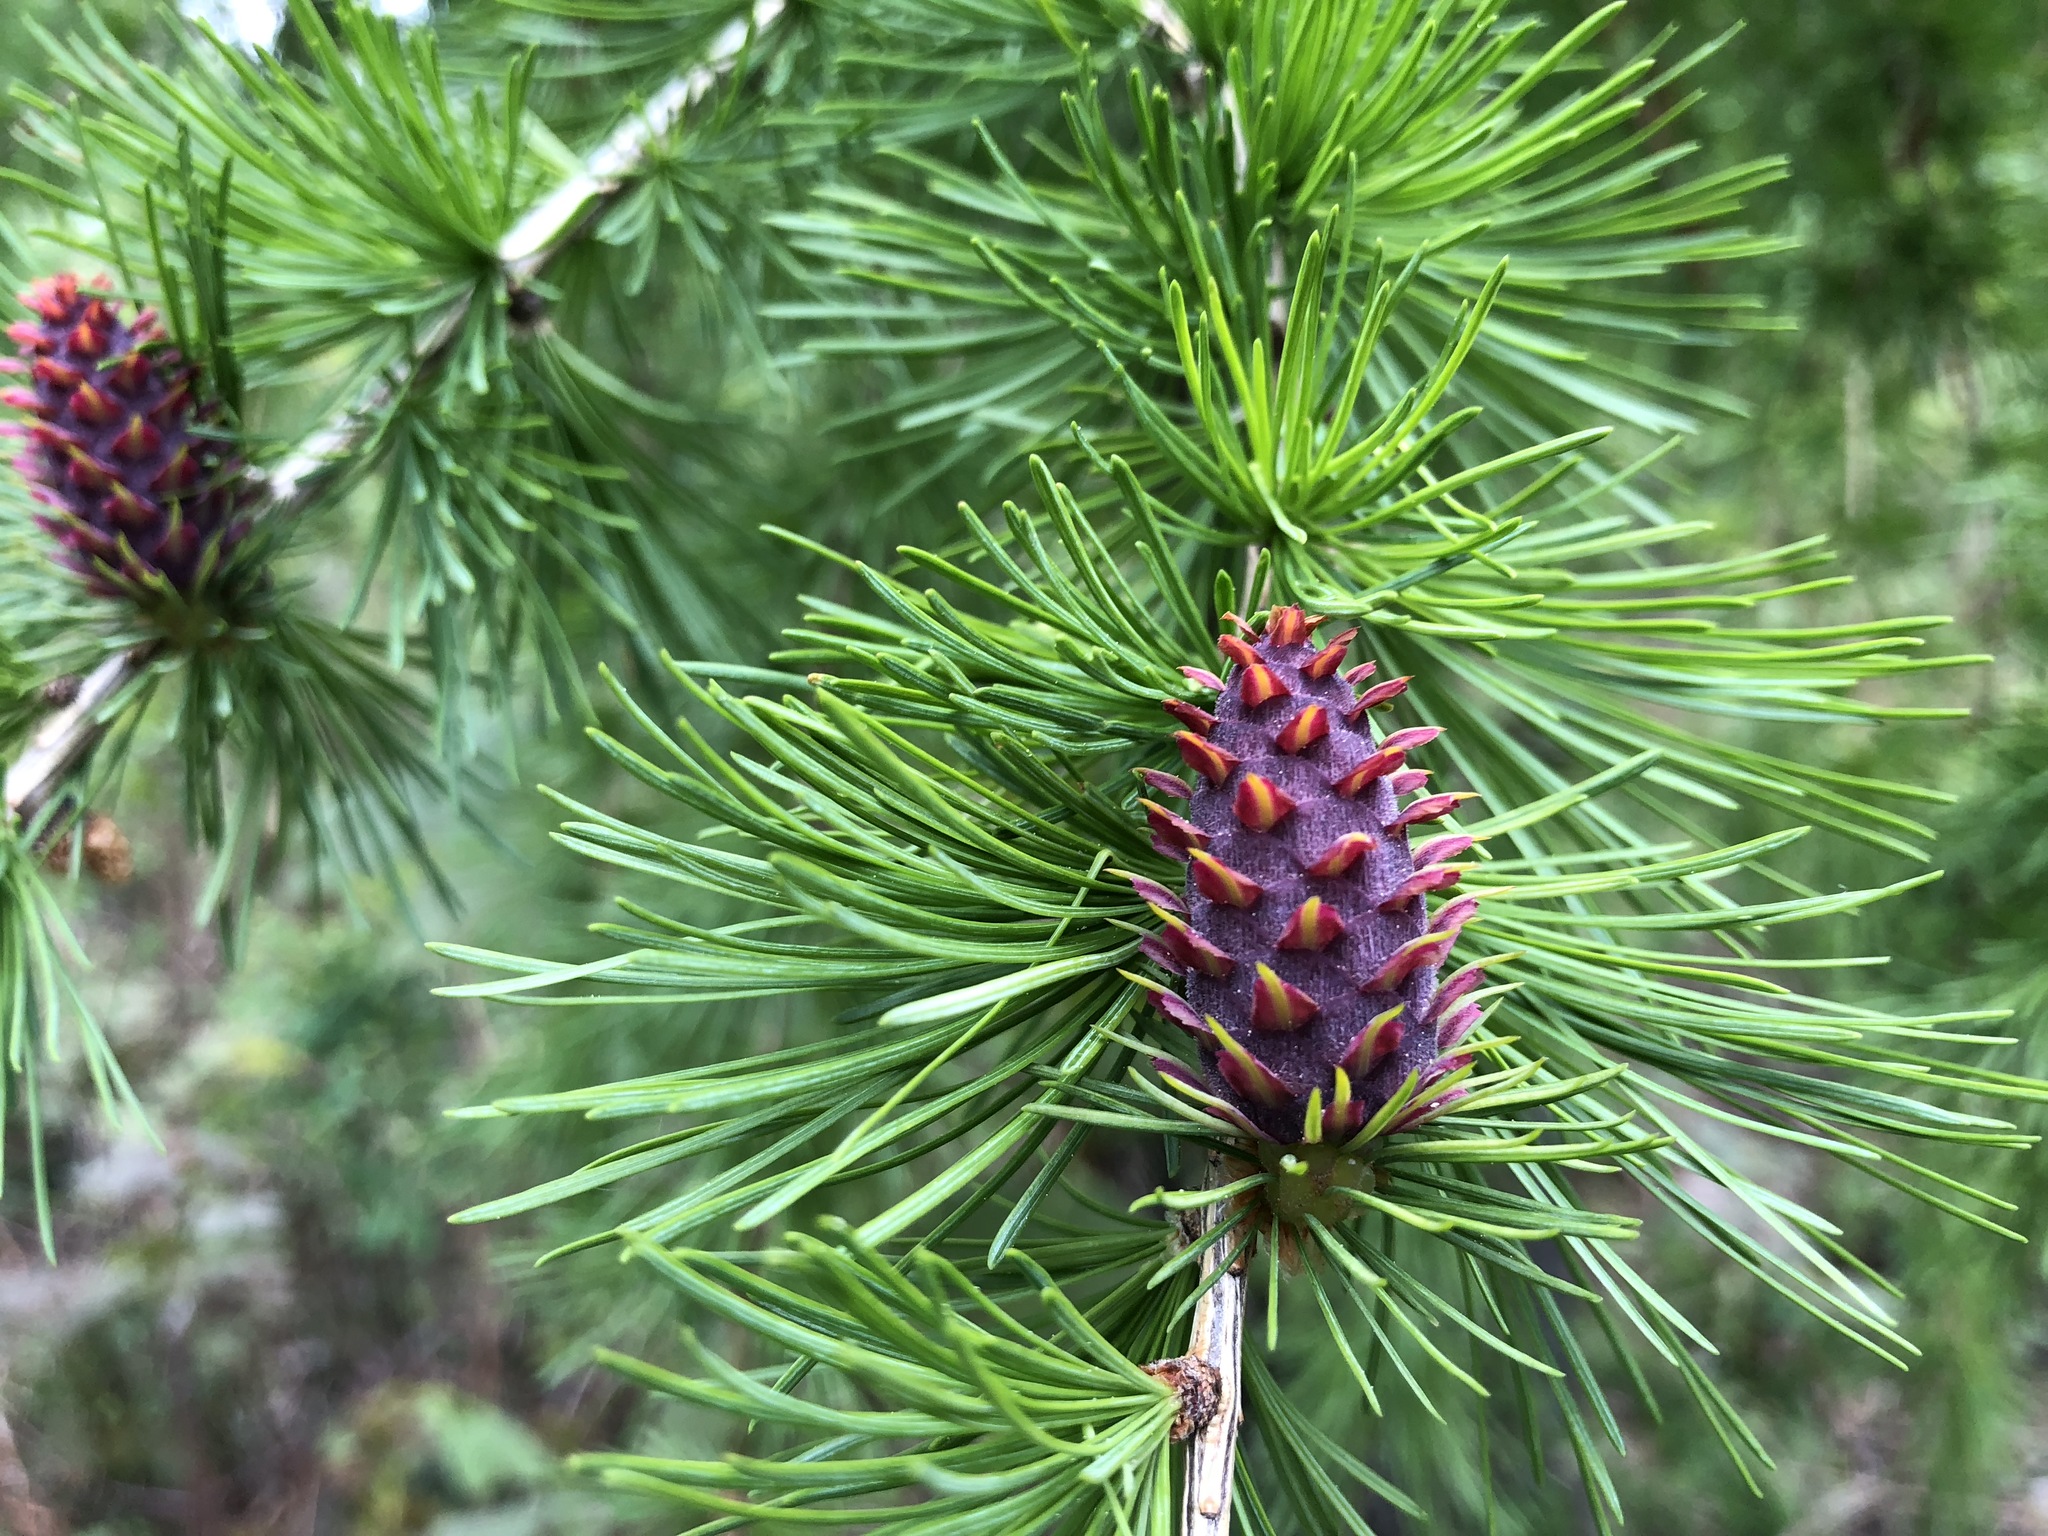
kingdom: Plantae
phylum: Tracheophyta
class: Pinopsida
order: Pinales
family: Pinaceae
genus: Larix
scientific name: Larix decidua
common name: European larch
